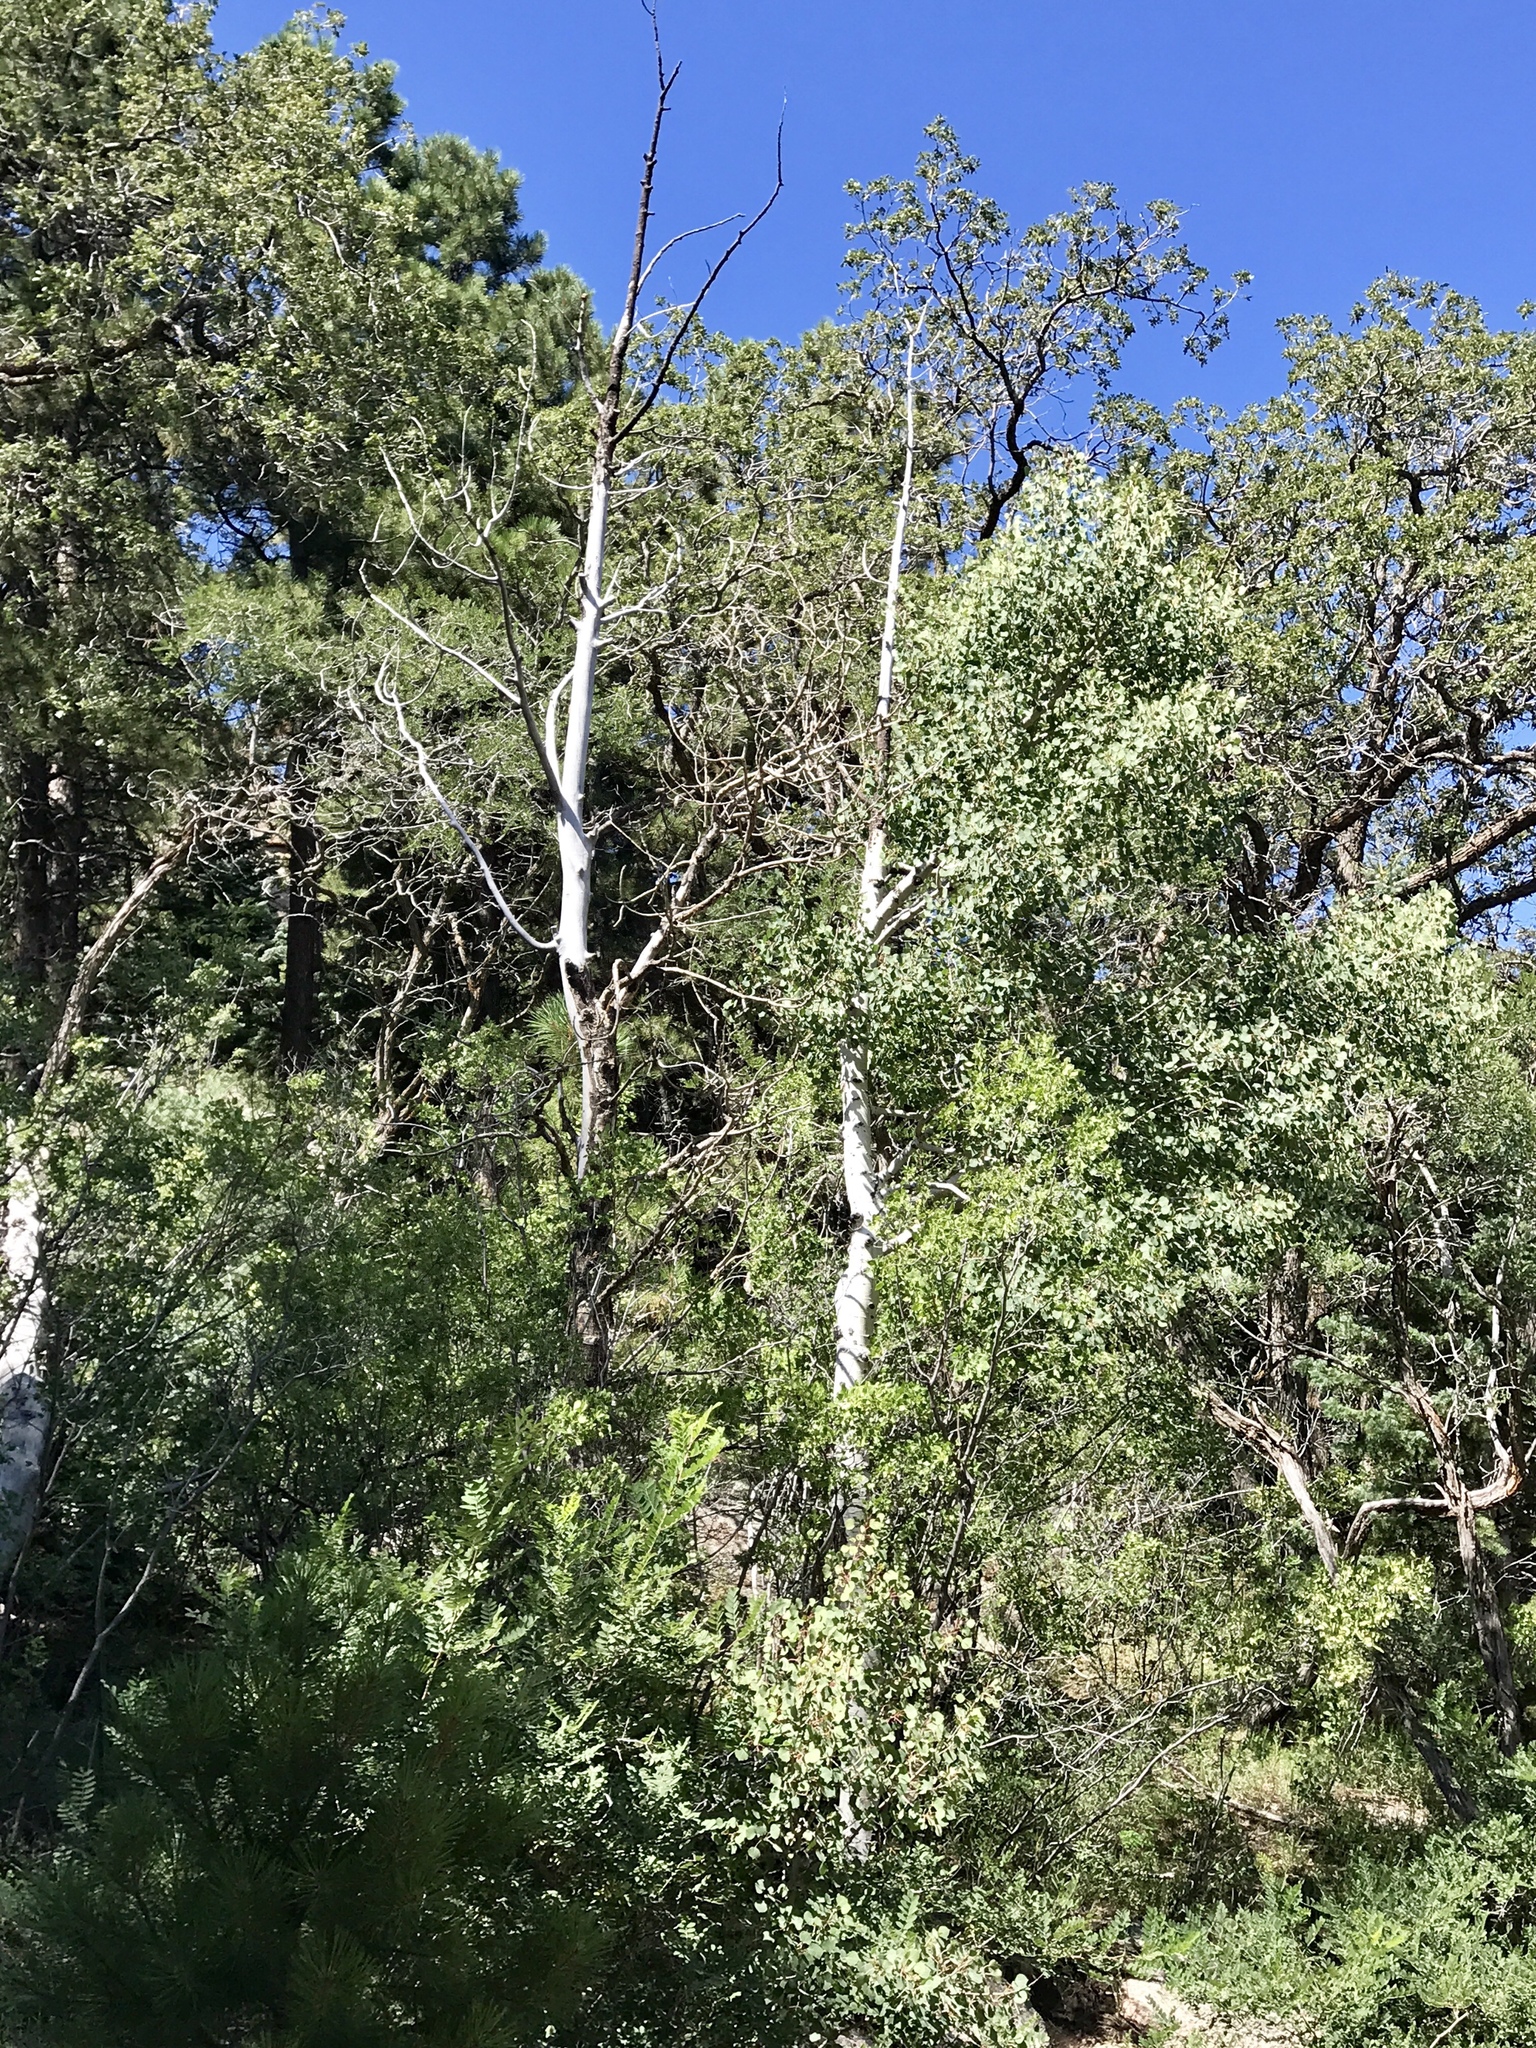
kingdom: Plantae
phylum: Tracheophyta
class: Magnoliopsida
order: Malpighiales
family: Salicaceae
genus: Populus
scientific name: Populus tremuloides
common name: Quaking aspen
